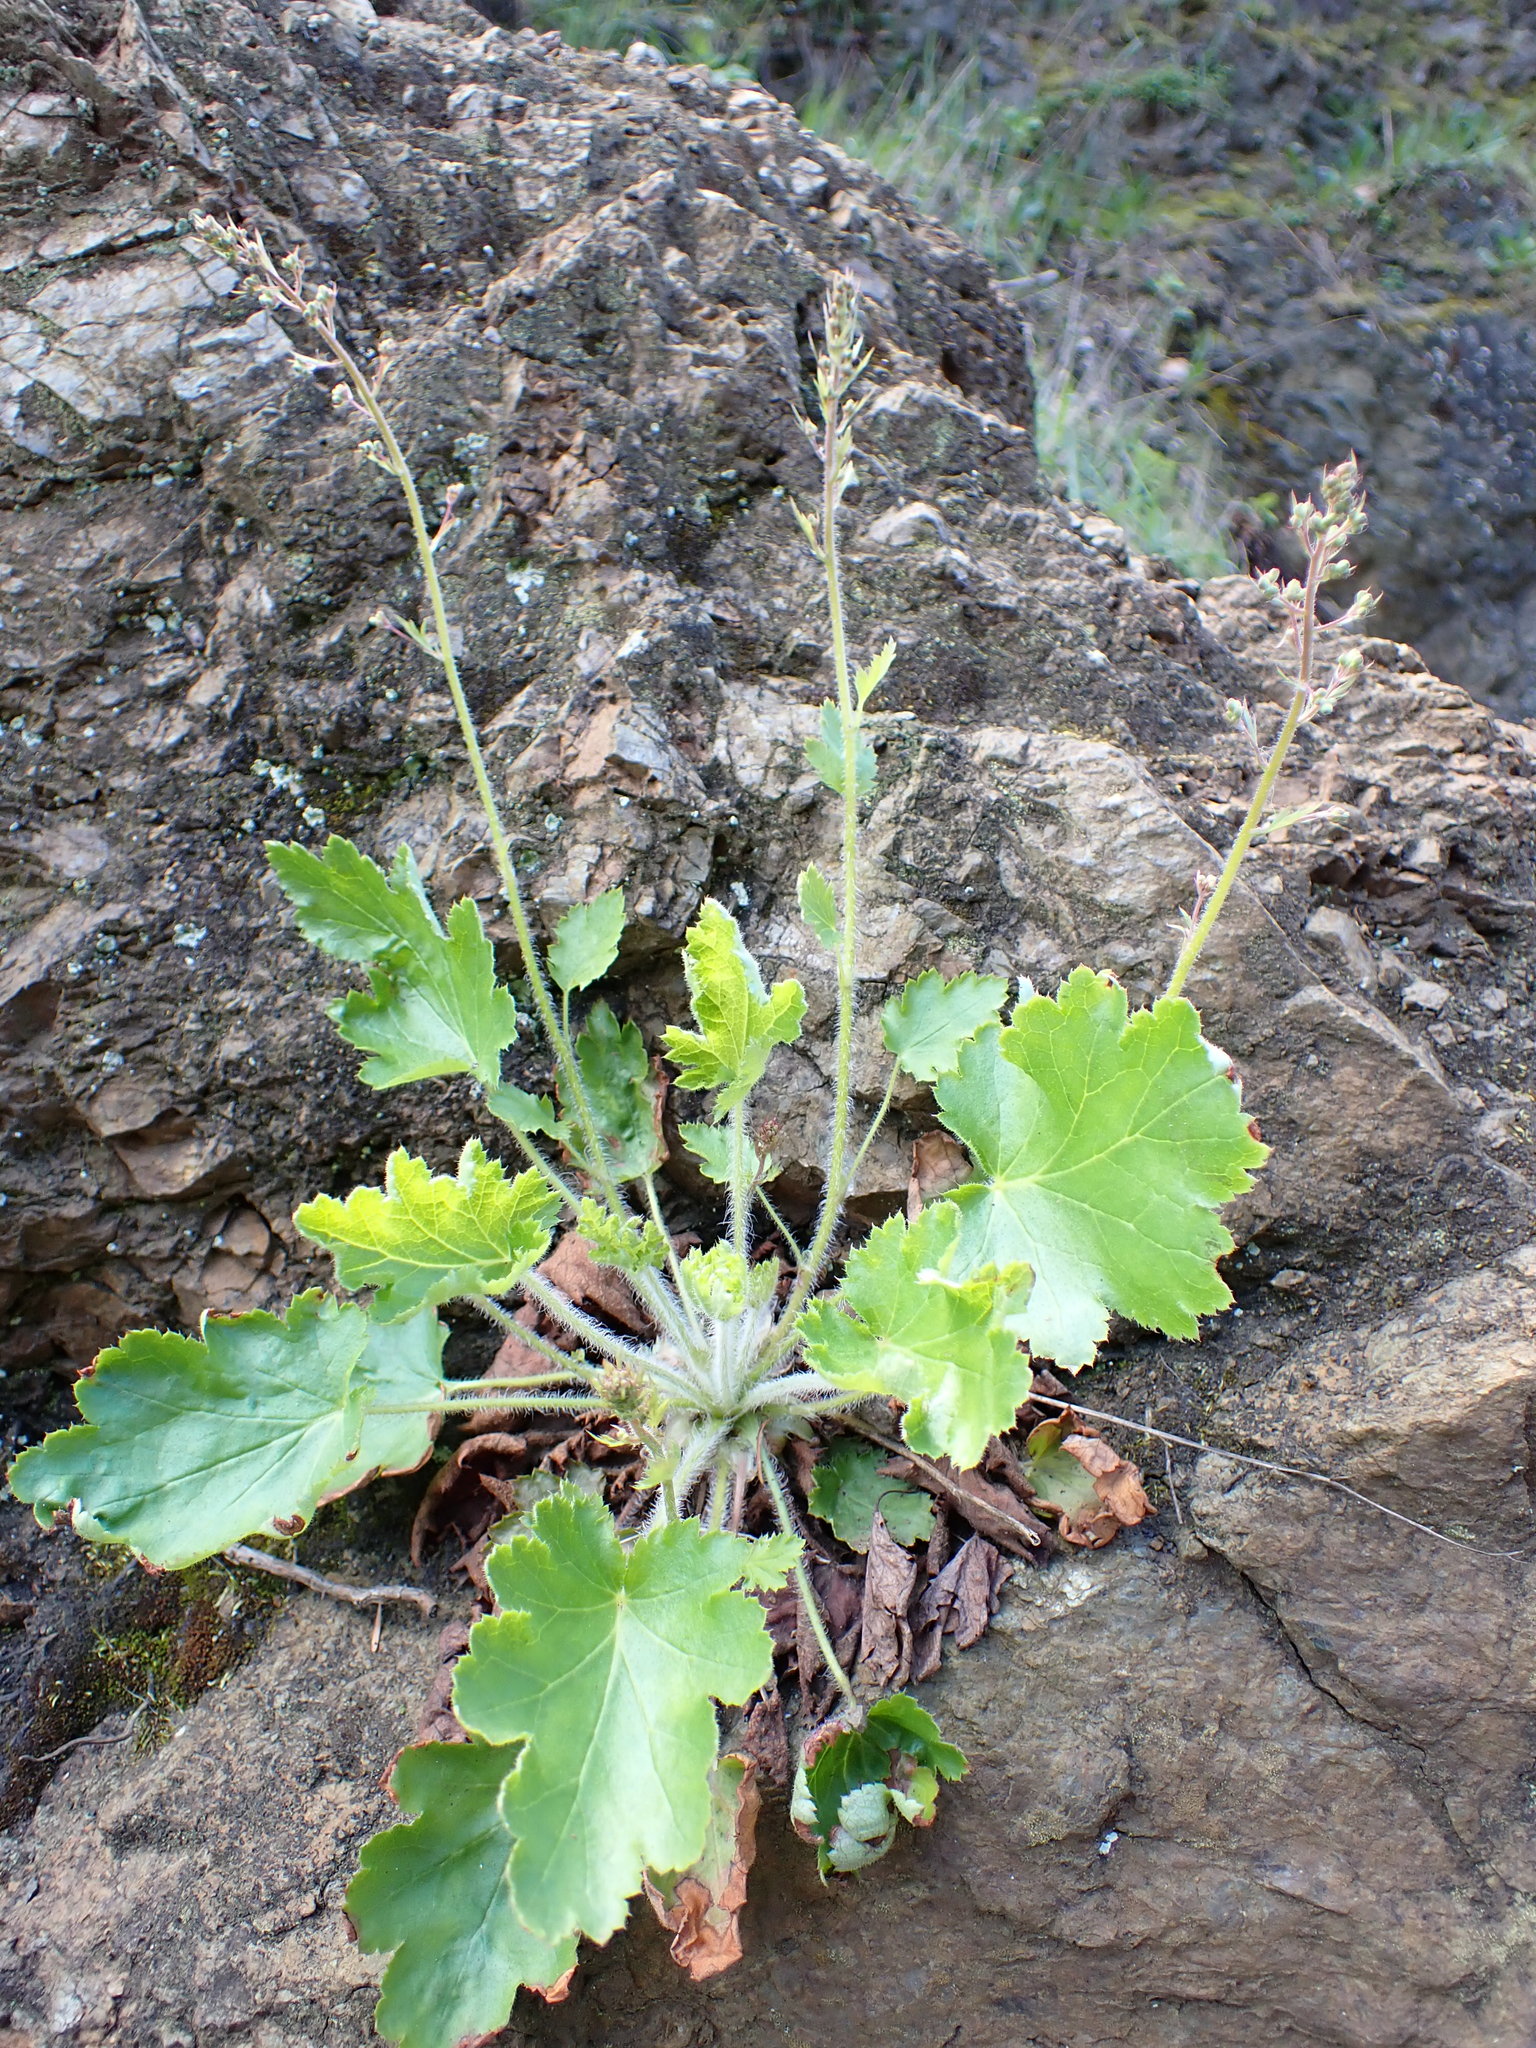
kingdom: Plantae
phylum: Tracheophyta
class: Magnoliopsida
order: Saxifragales
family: Saxifragaceae
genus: Heuchera
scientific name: Heuchera micrantha
